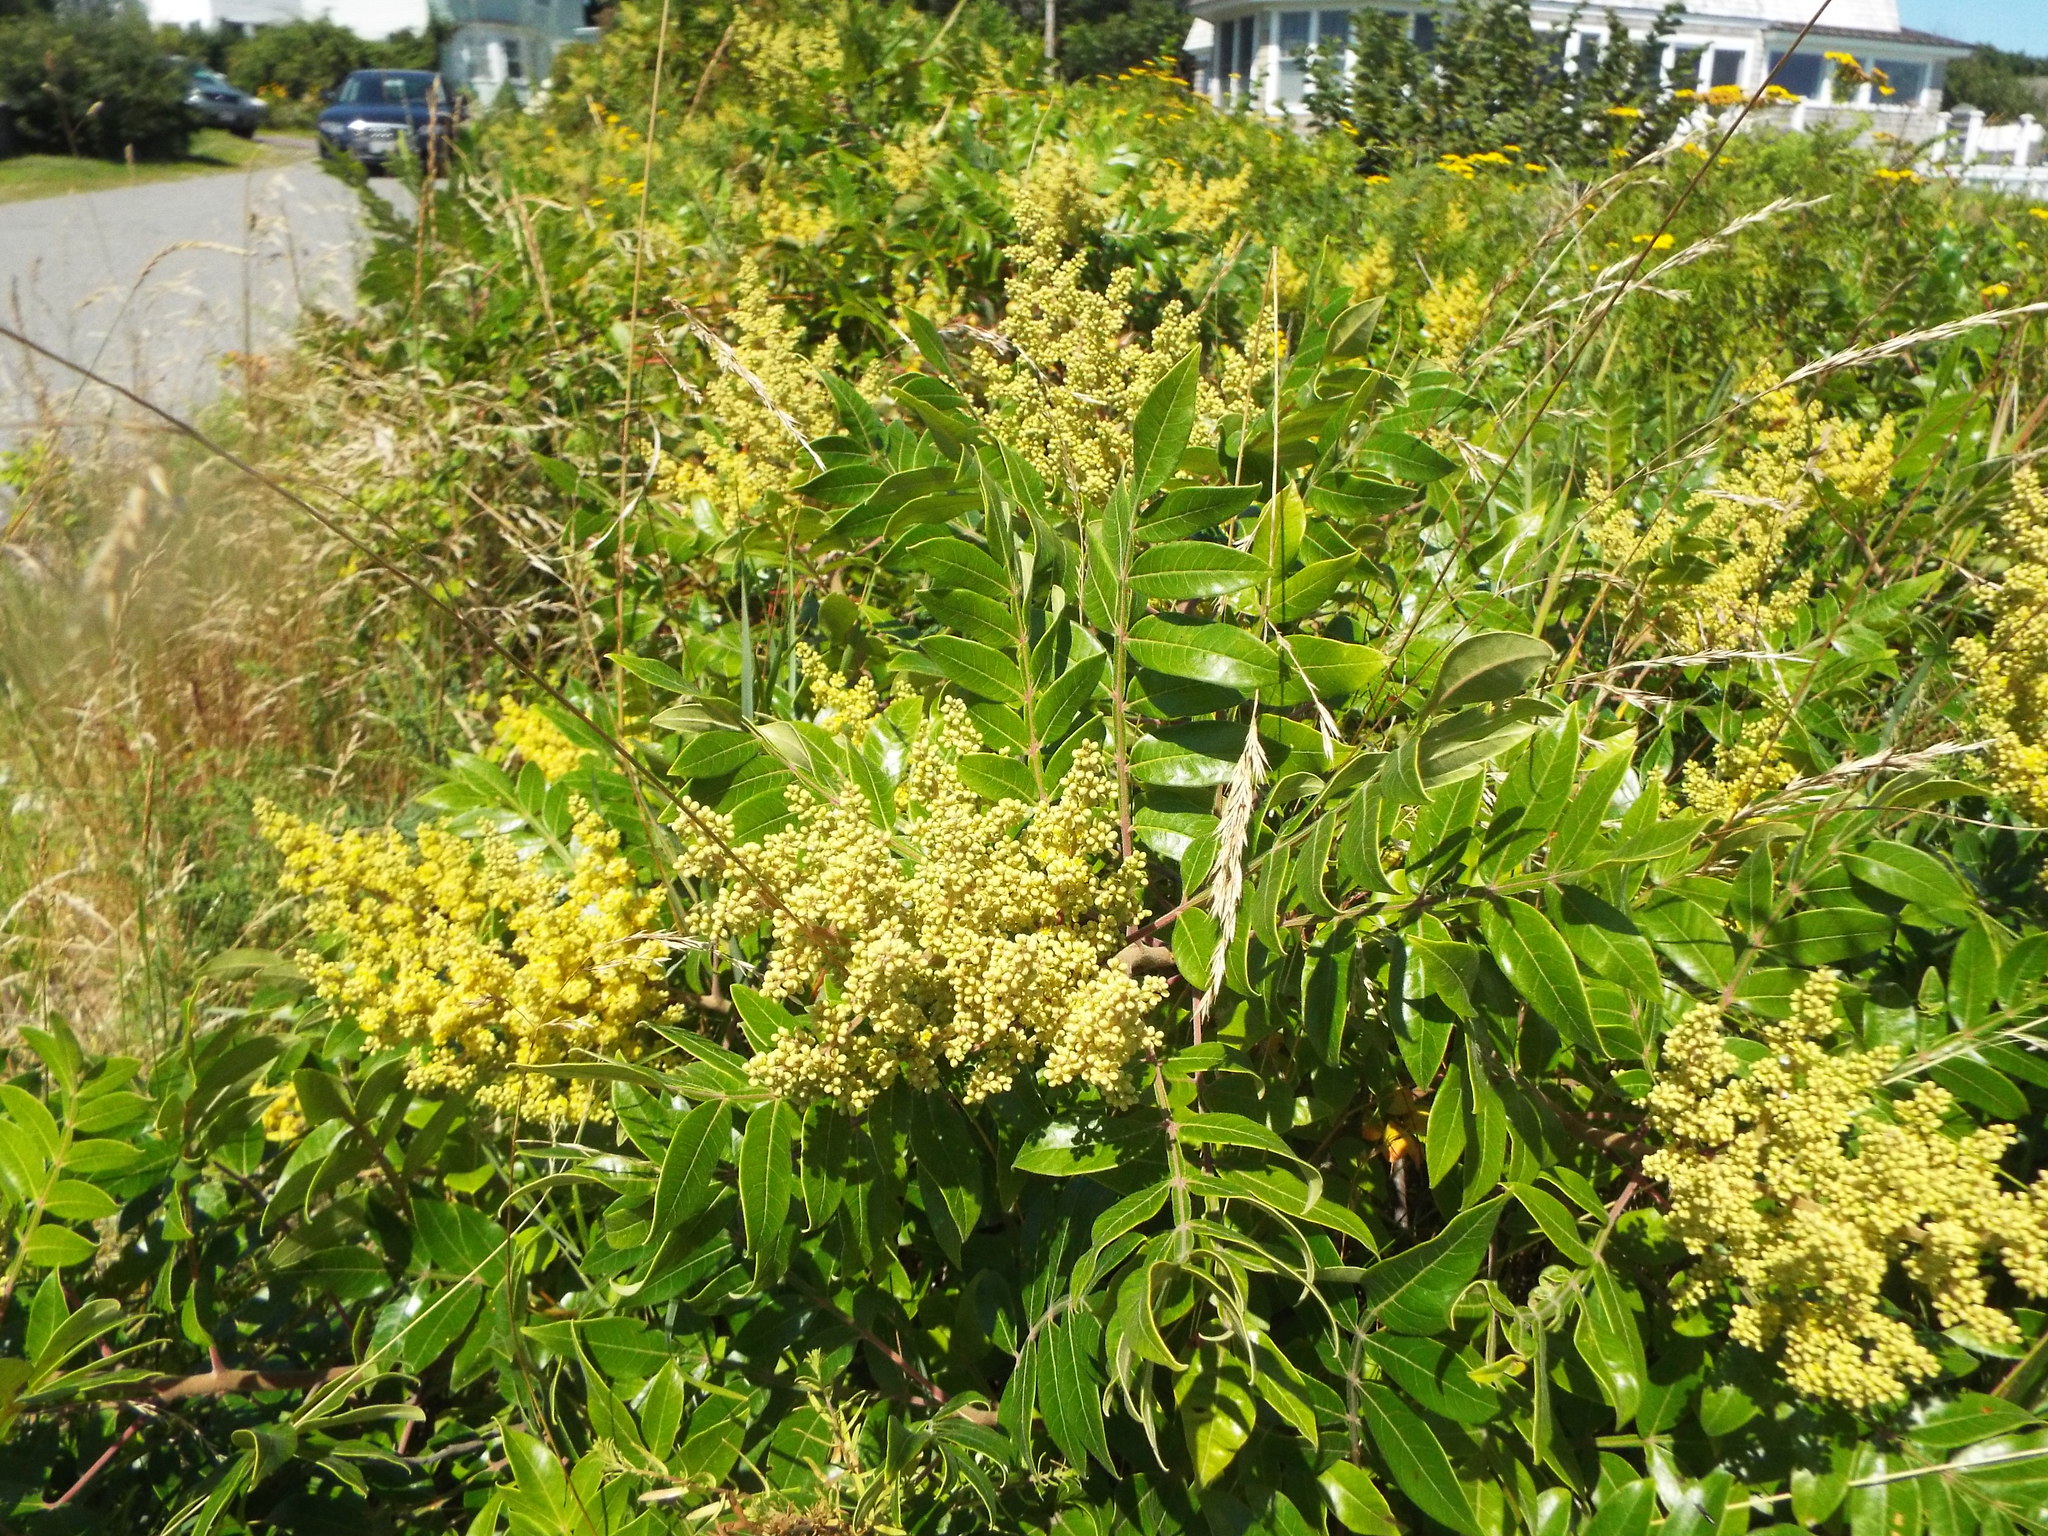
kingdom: Plantae
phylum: Tracheophyta
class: Magnoliopsida
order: Sapindales
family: Anacardiaceae
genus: Rhus
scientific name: Rhus copallina
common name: Shining sumac
